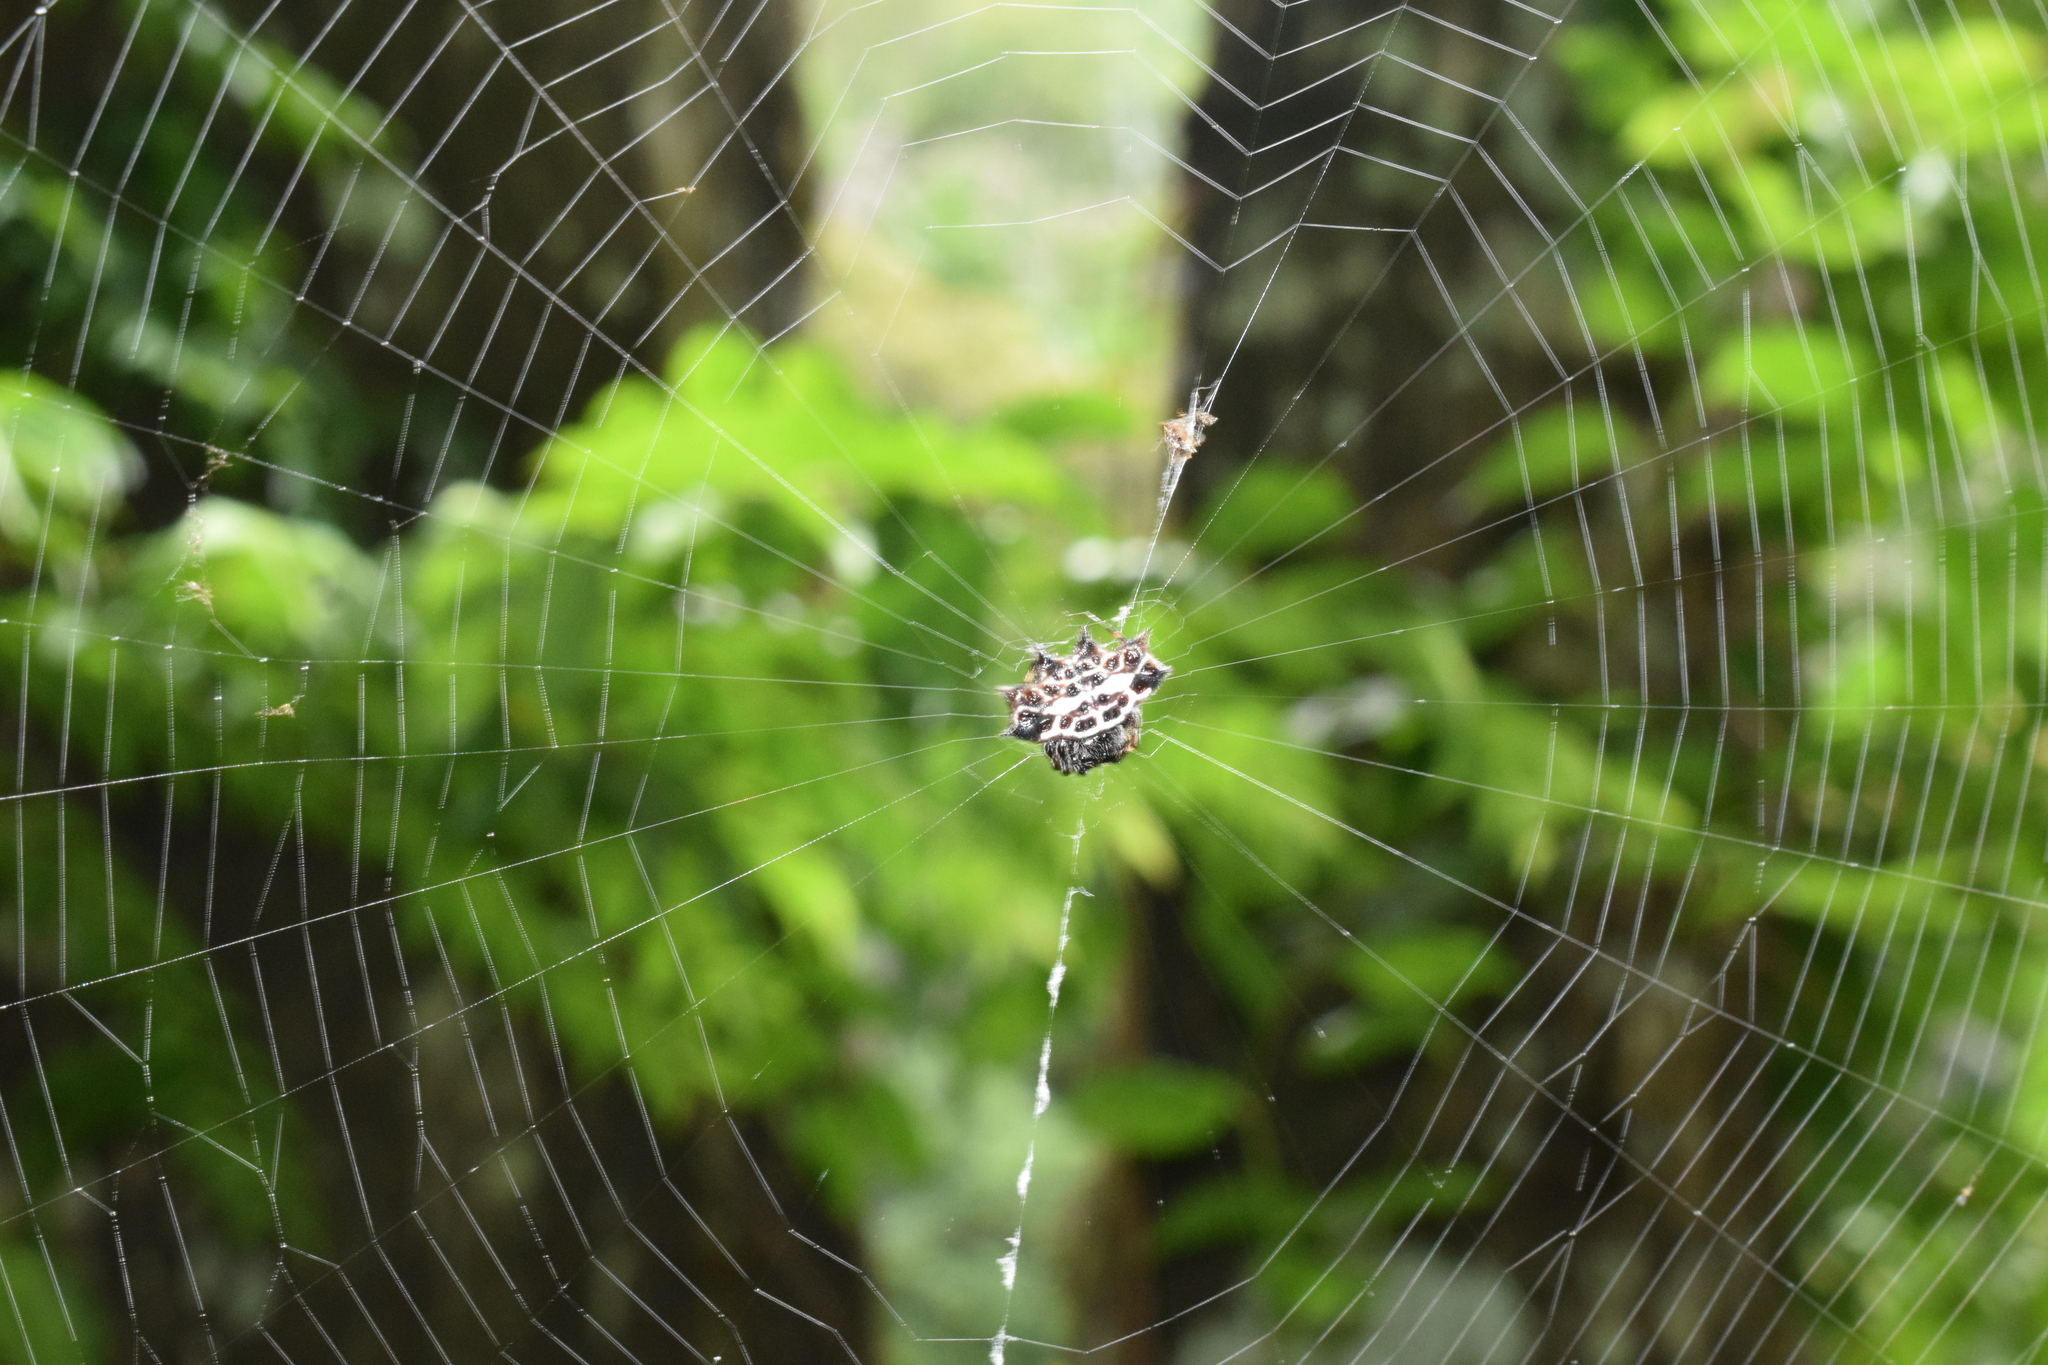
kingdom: Animalia
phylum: Arthropoda
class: Arachnida
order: Araneae
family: Araneidae
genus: Gasteracantha
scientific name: Gasteracantha cancriformis
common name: Orb weavers
